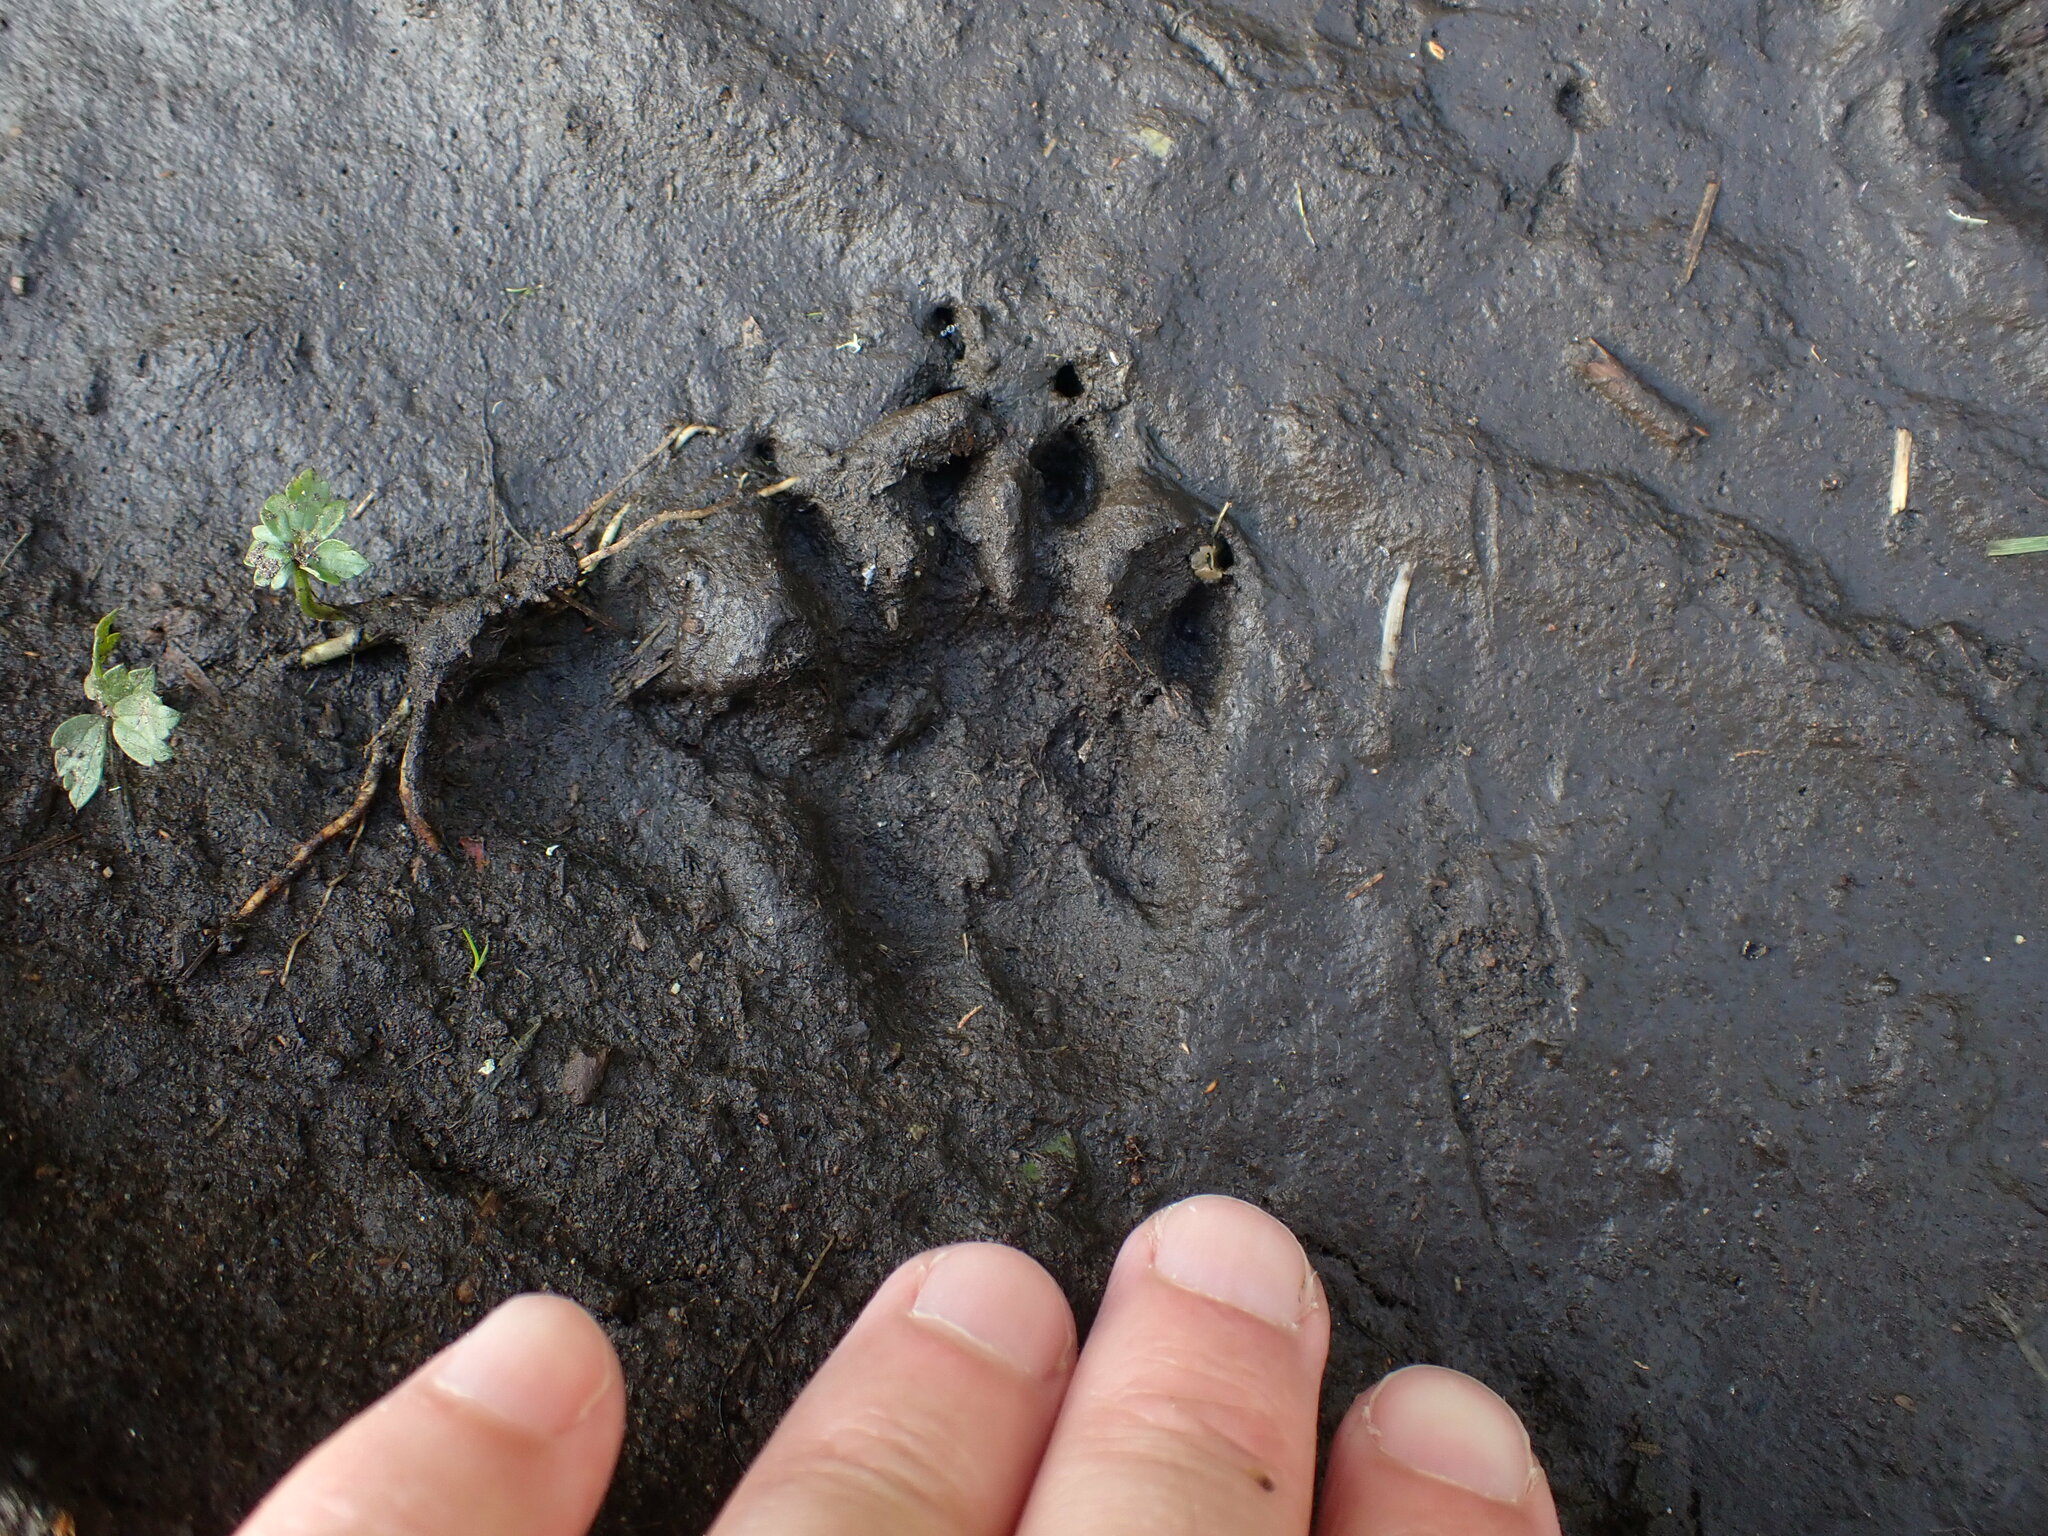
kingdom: Animalia
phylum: Chordata
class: Mammalia
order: Diprotodontia
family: Phalangeridae
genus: Trichosurus
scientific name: Trichosurus vulpecula
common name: Common brushtail
